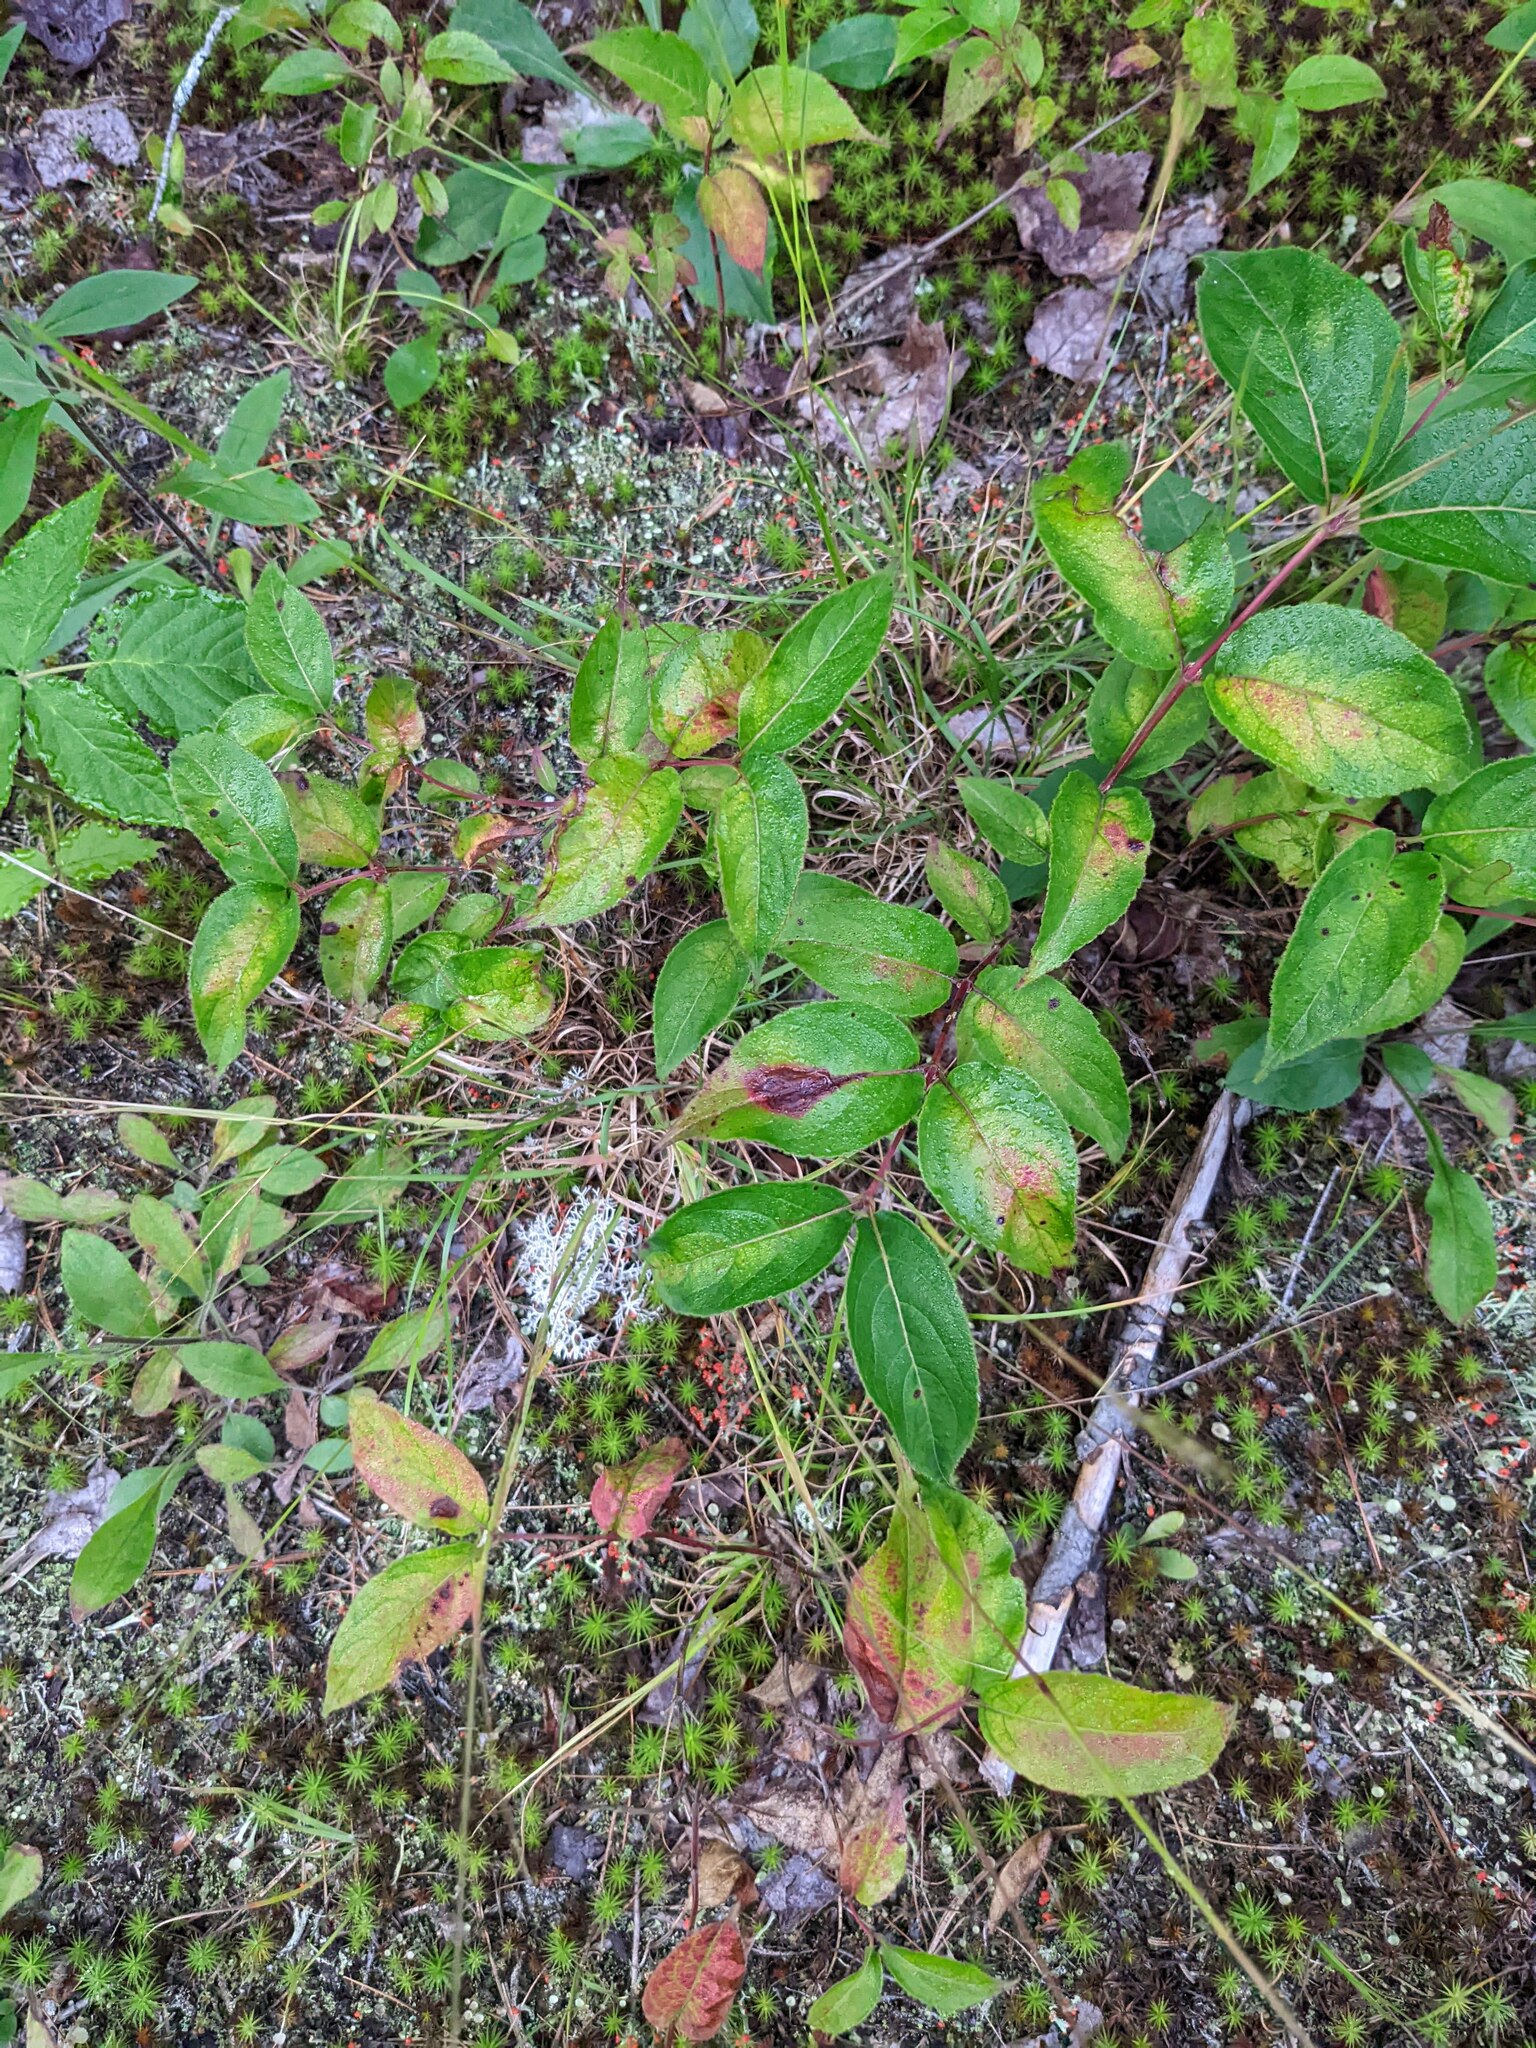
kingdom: Plantae
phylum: Tracheophyta
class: Magnoliopsida
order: Gentianales
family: Apocynaceae
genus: Apocynum
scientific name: Apocynum androsaemifolium
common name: Spreading dogbane
